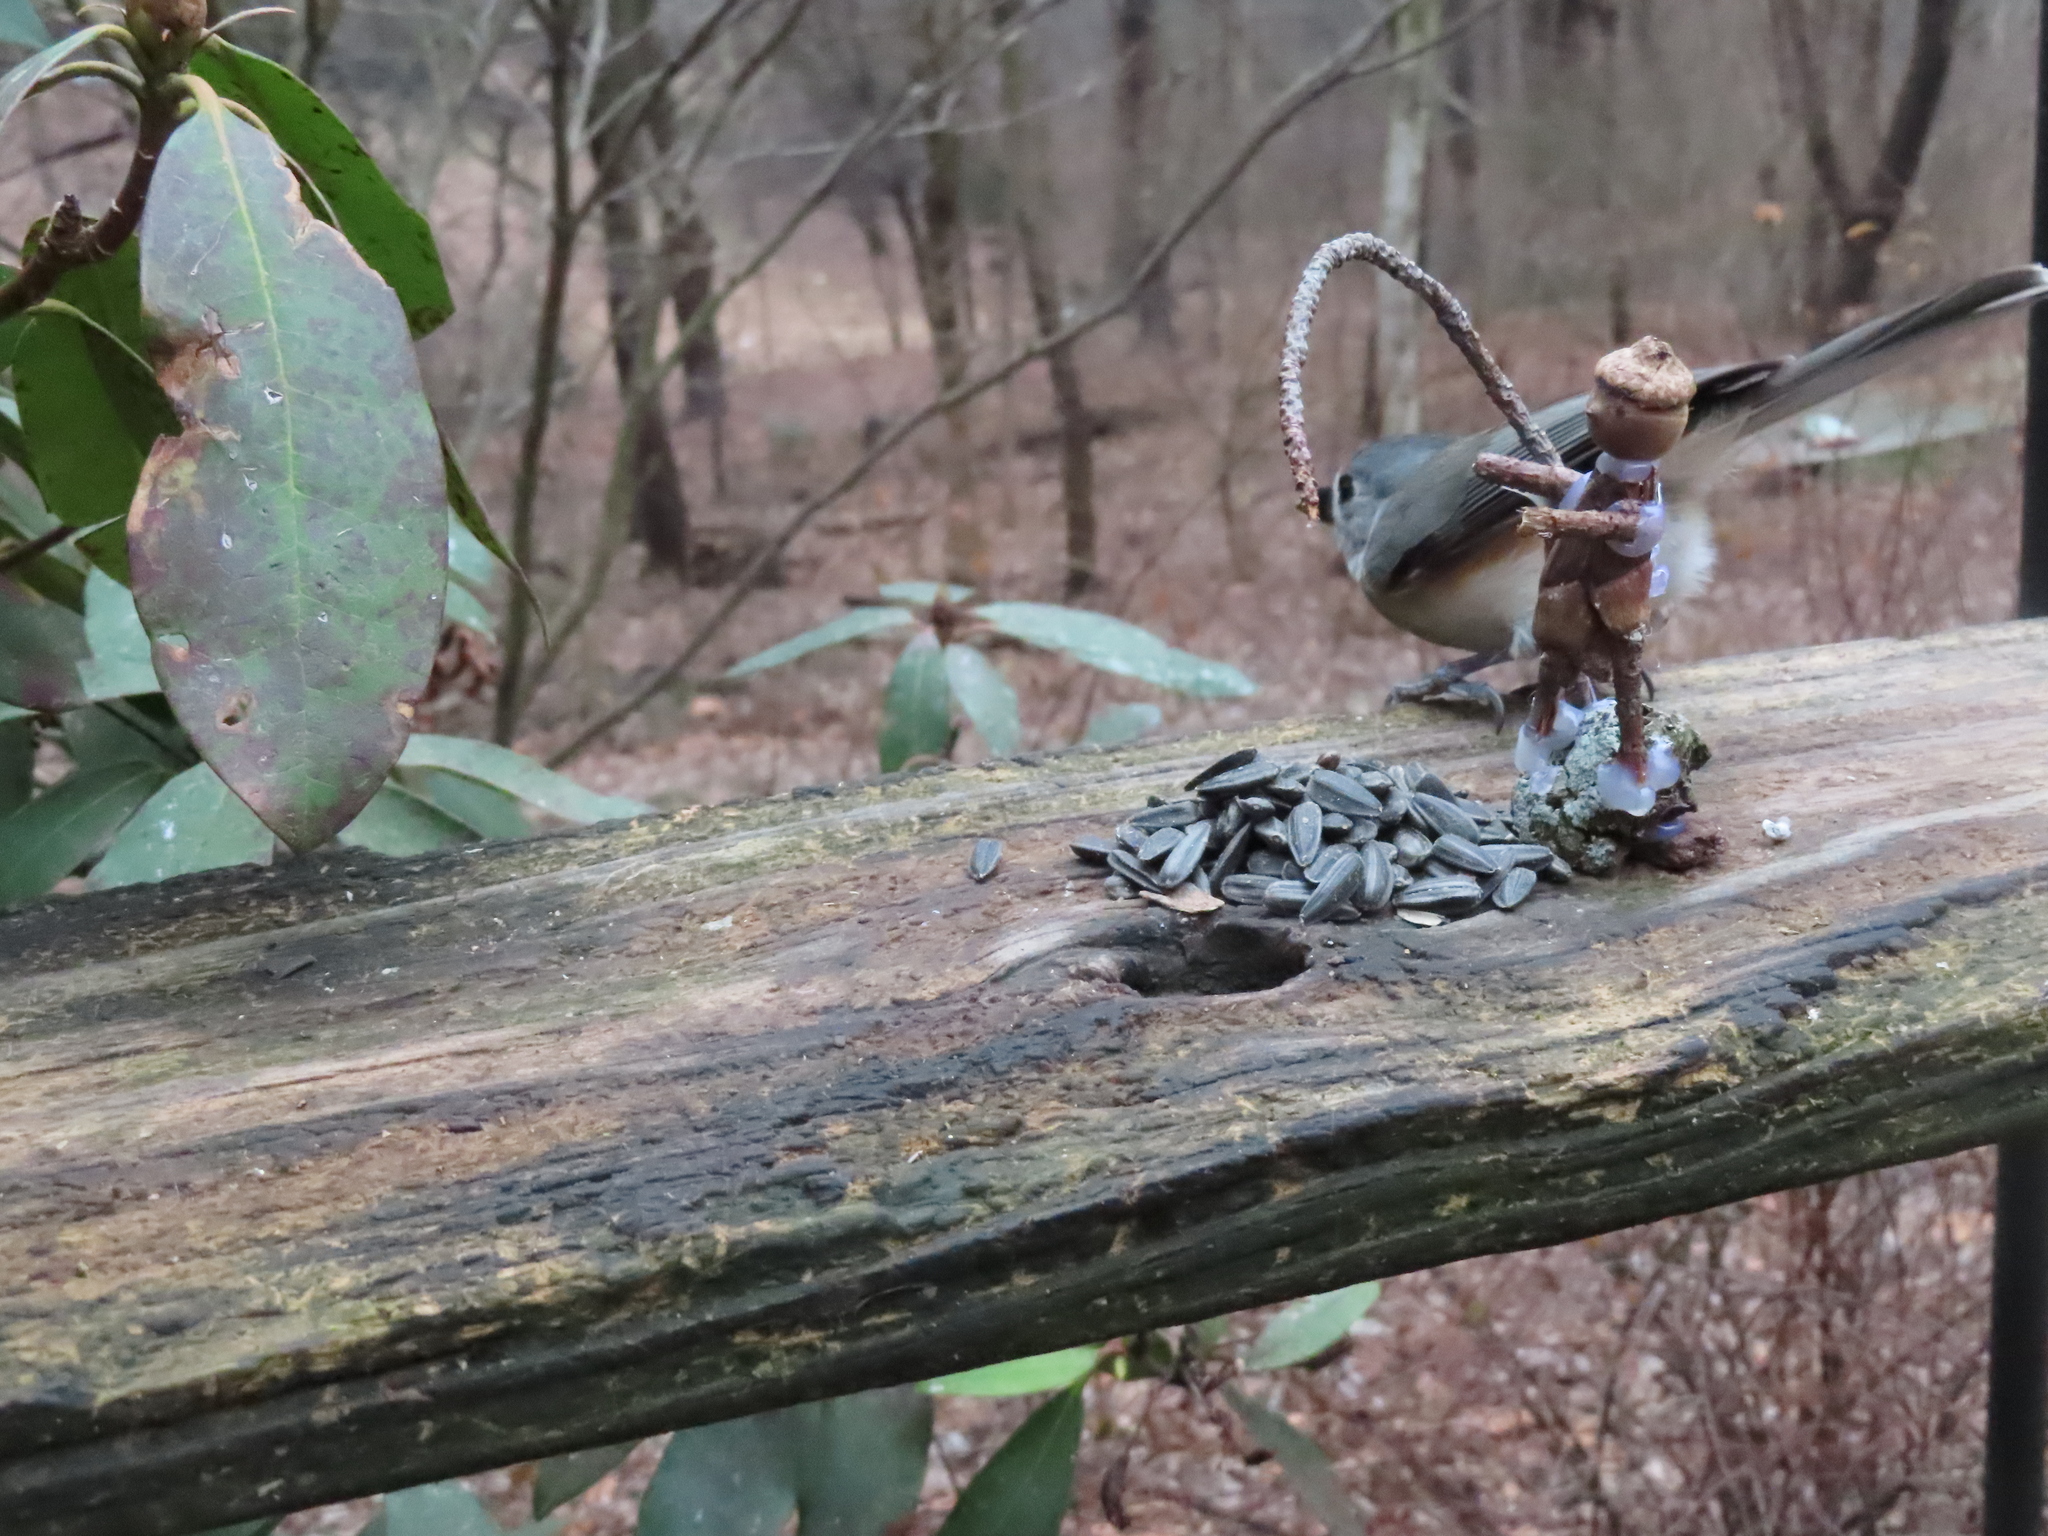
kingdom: Animalia
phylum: Chordata
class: Aves
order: Passeriformes
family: Paridae
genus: Baeolophus
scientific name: Baeolophus bicolor
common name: Tufted titmouse
